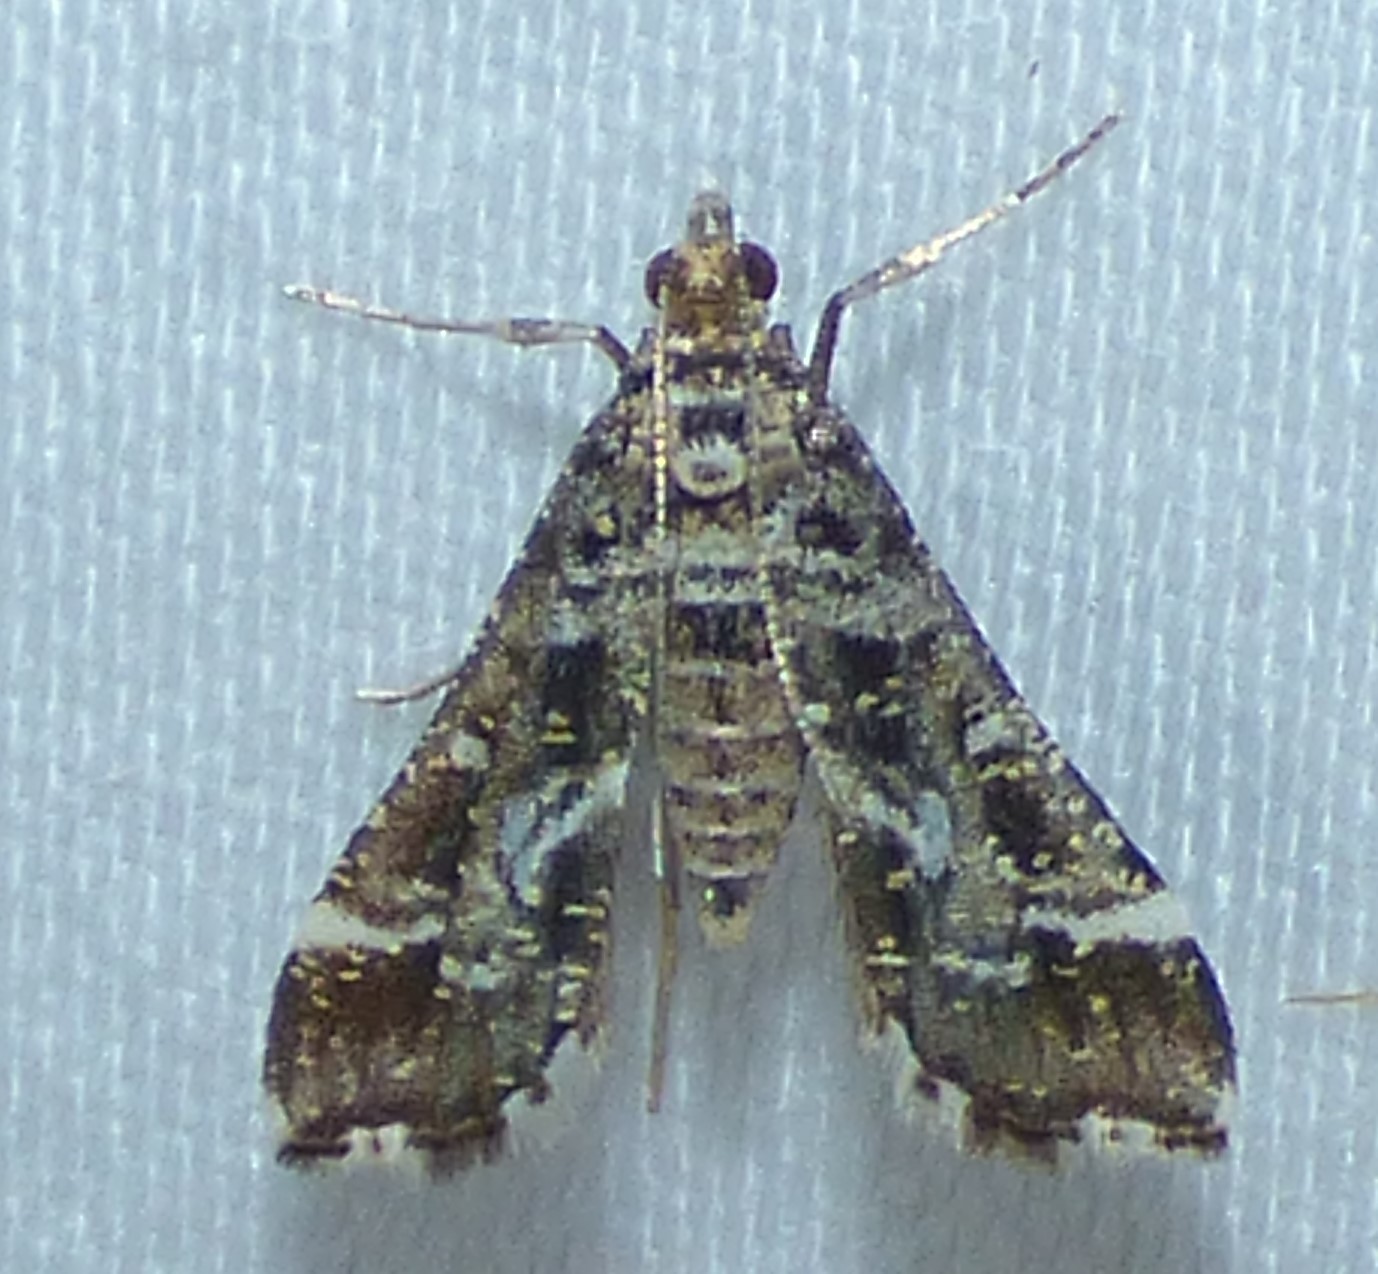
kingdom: Animalia
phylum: Arthropoda
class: Insecta
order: Lepidoptera
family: Crambidae
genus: Diasemiopsis
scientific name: Diasemiopsis ramburialis
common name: Vagrant china-mark
